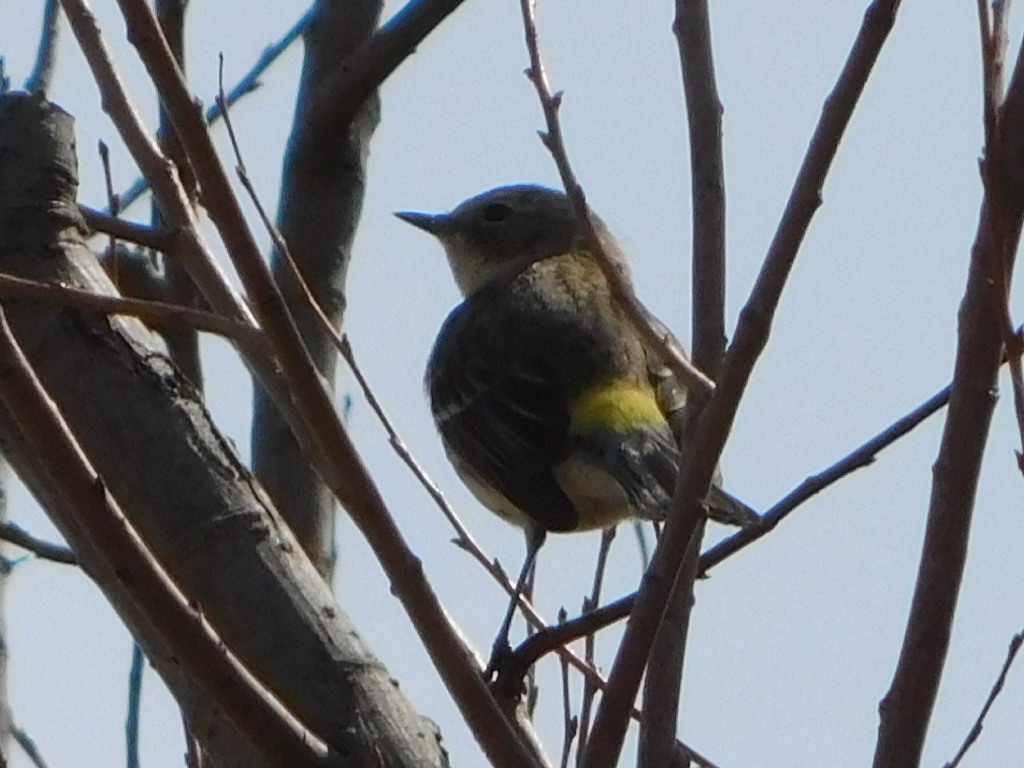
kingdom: Animalia
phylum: Chordata
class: Aves
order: Passeriformes
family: Parulidae
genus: Setophaga
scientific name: Setophaga coronata
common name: Myrtle warbler
